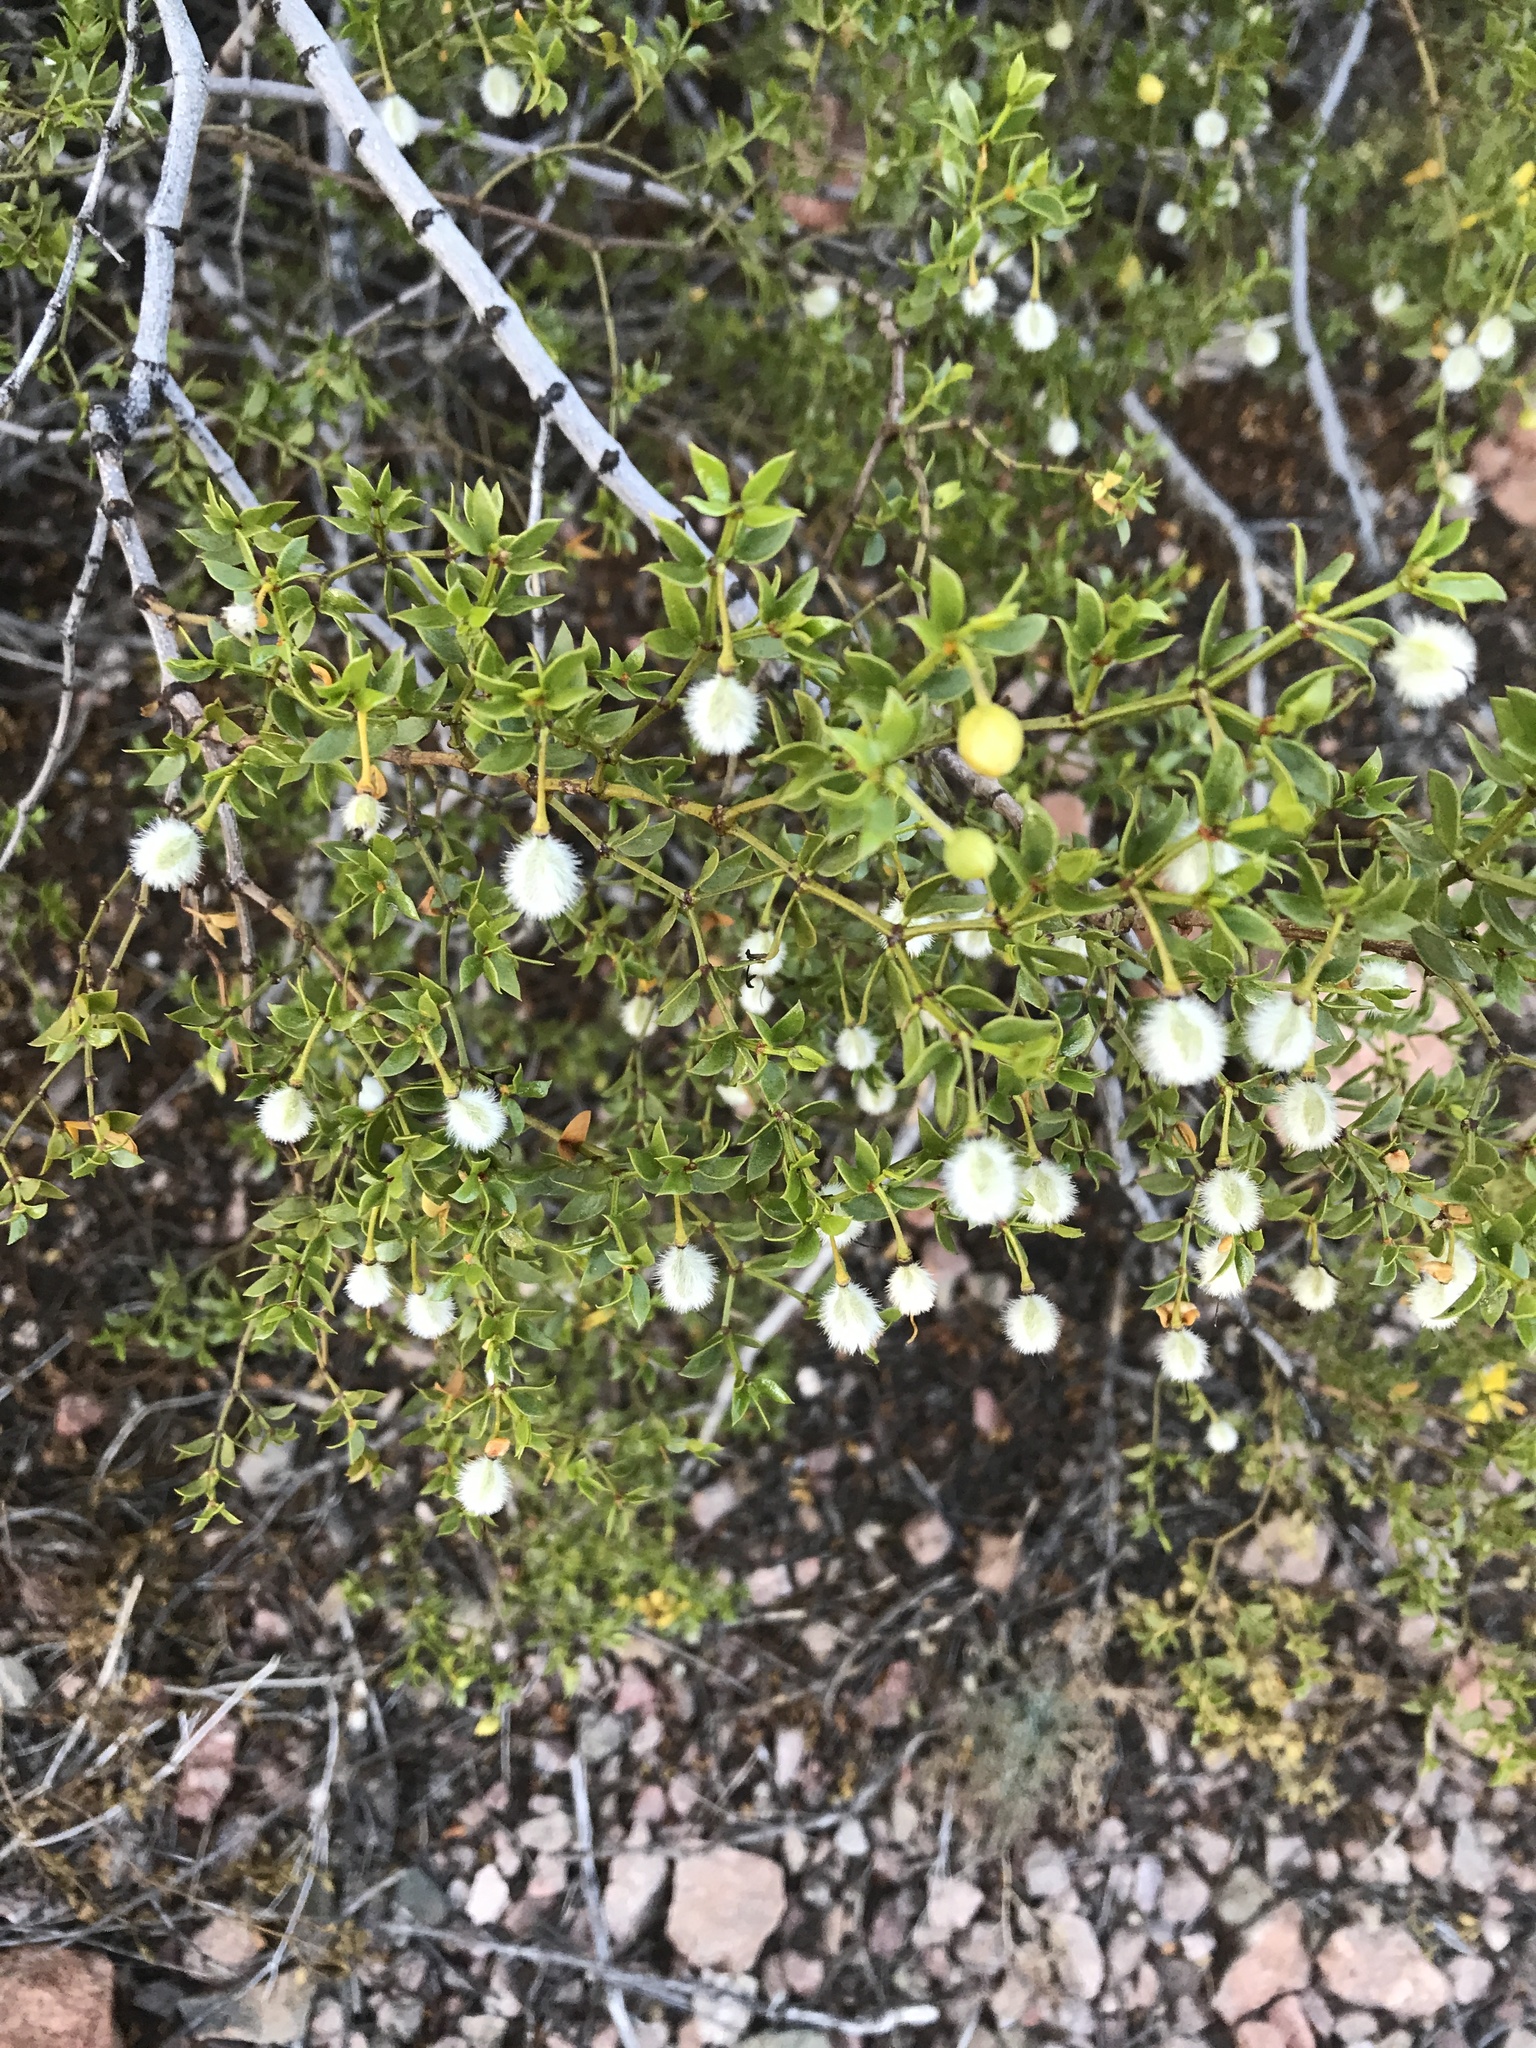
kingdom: Plantae
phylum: Tracheophyta
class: Magnoliopsida
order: Zygophyllales
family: Zygophyllaceae
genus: Larrea
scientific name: Larrea tridentata
